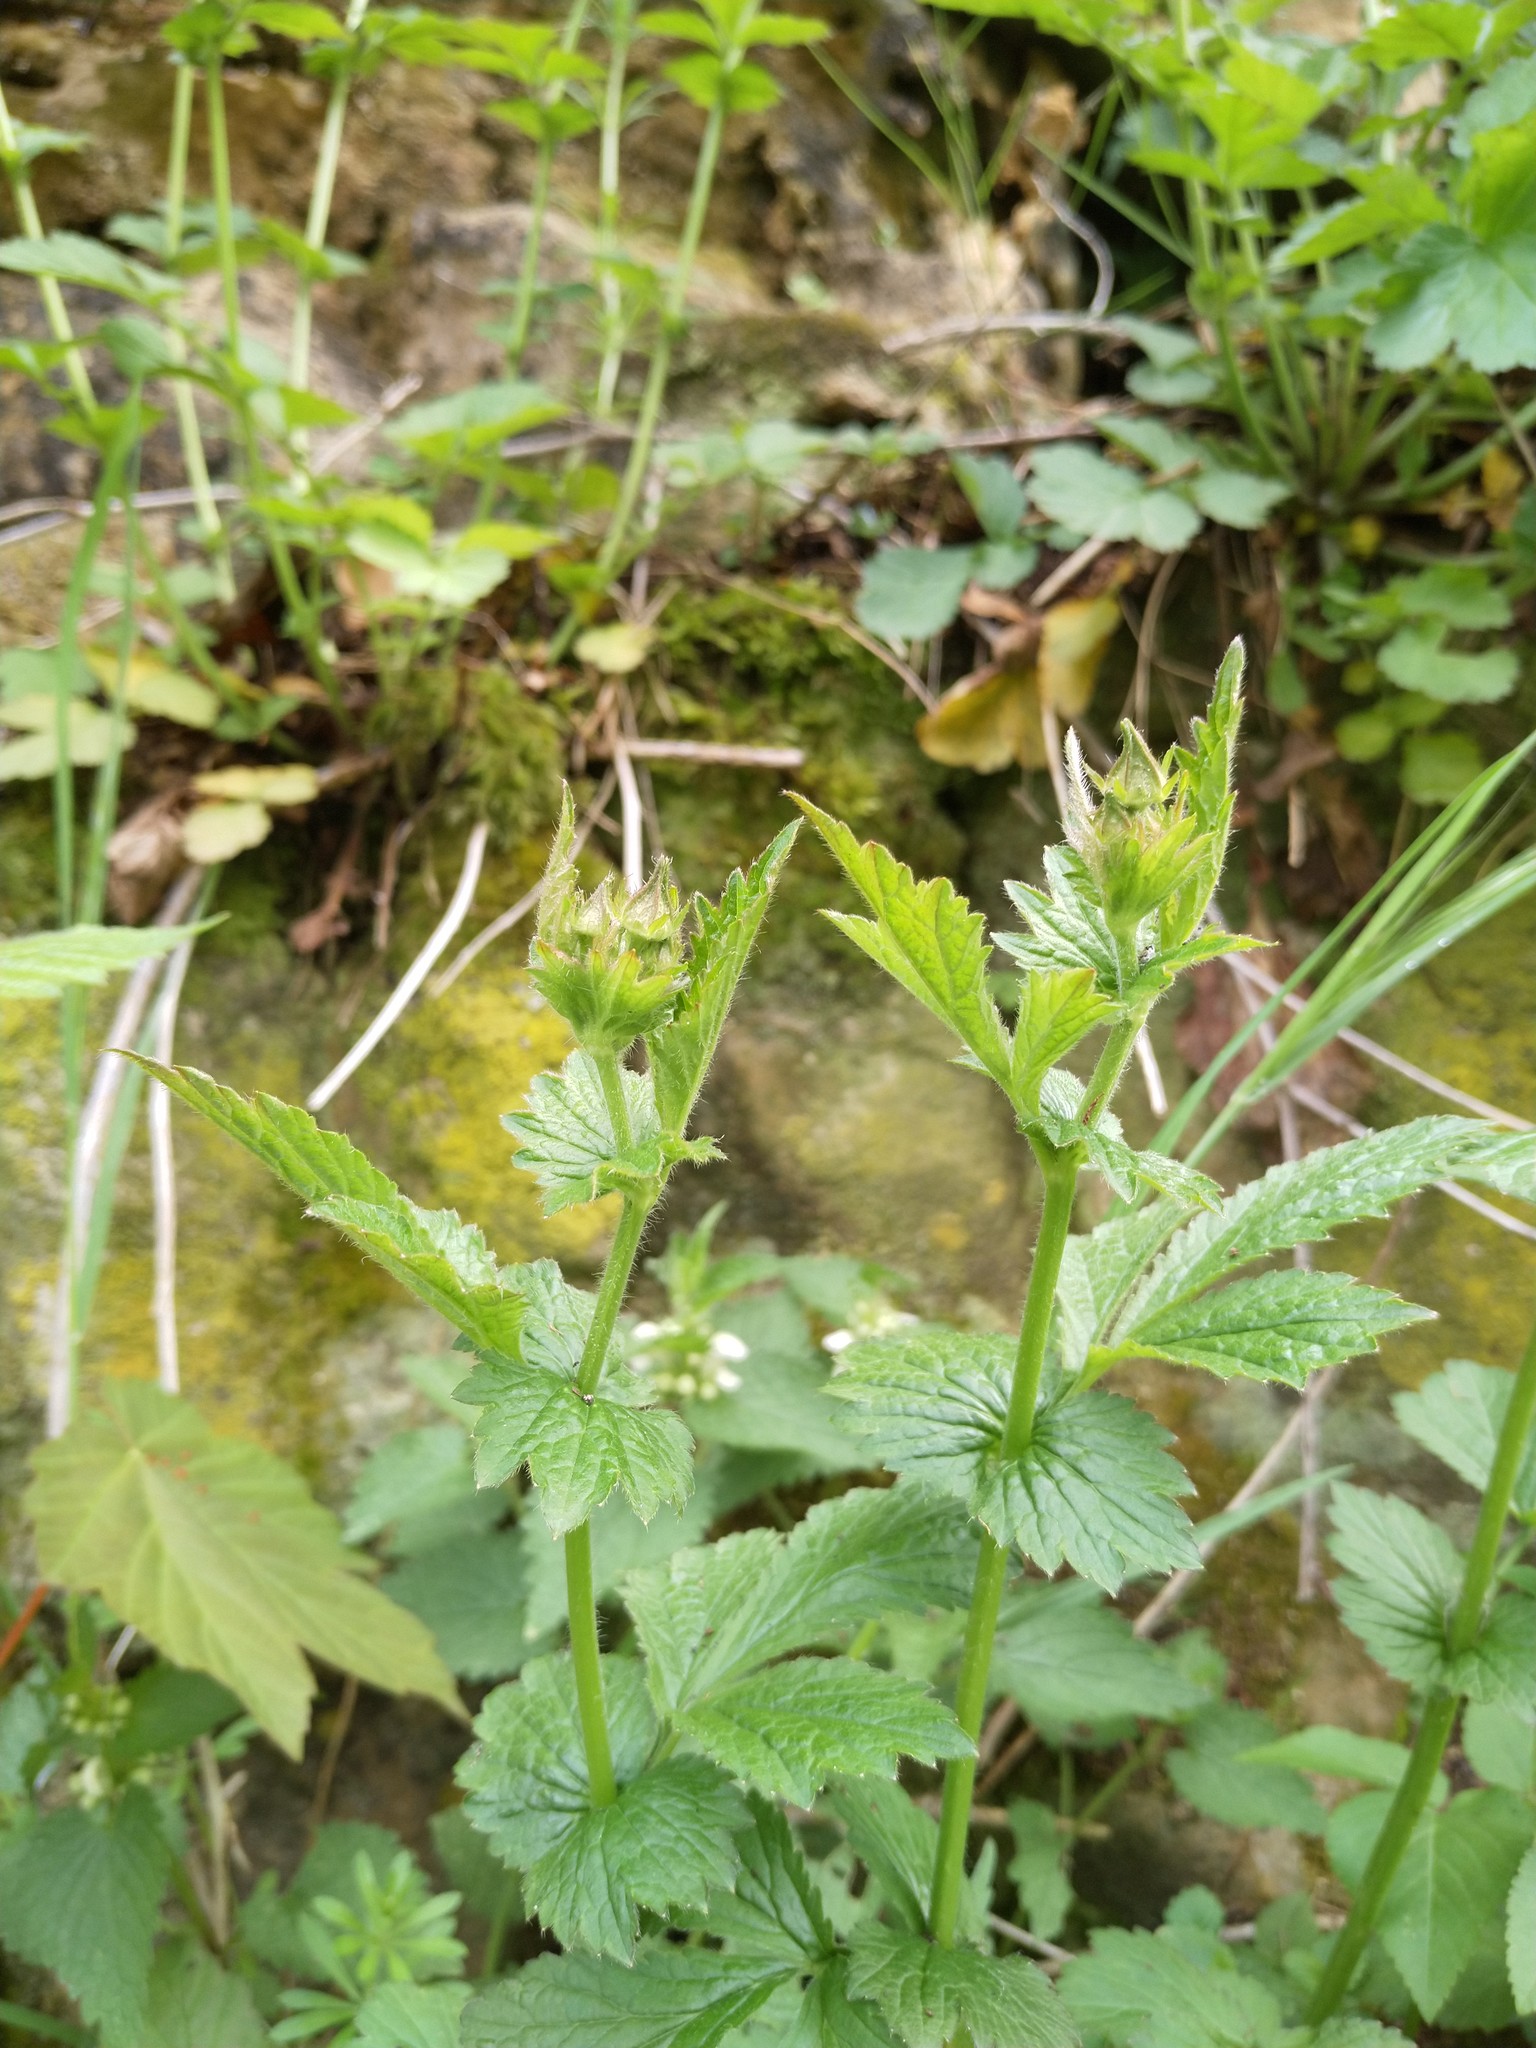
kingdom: Plantae
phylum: Tracheophyta
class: Magnoliopsida
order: Rosales
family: Rosaceae
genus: Geum
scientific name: Geum urbanum
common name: Wood avens
